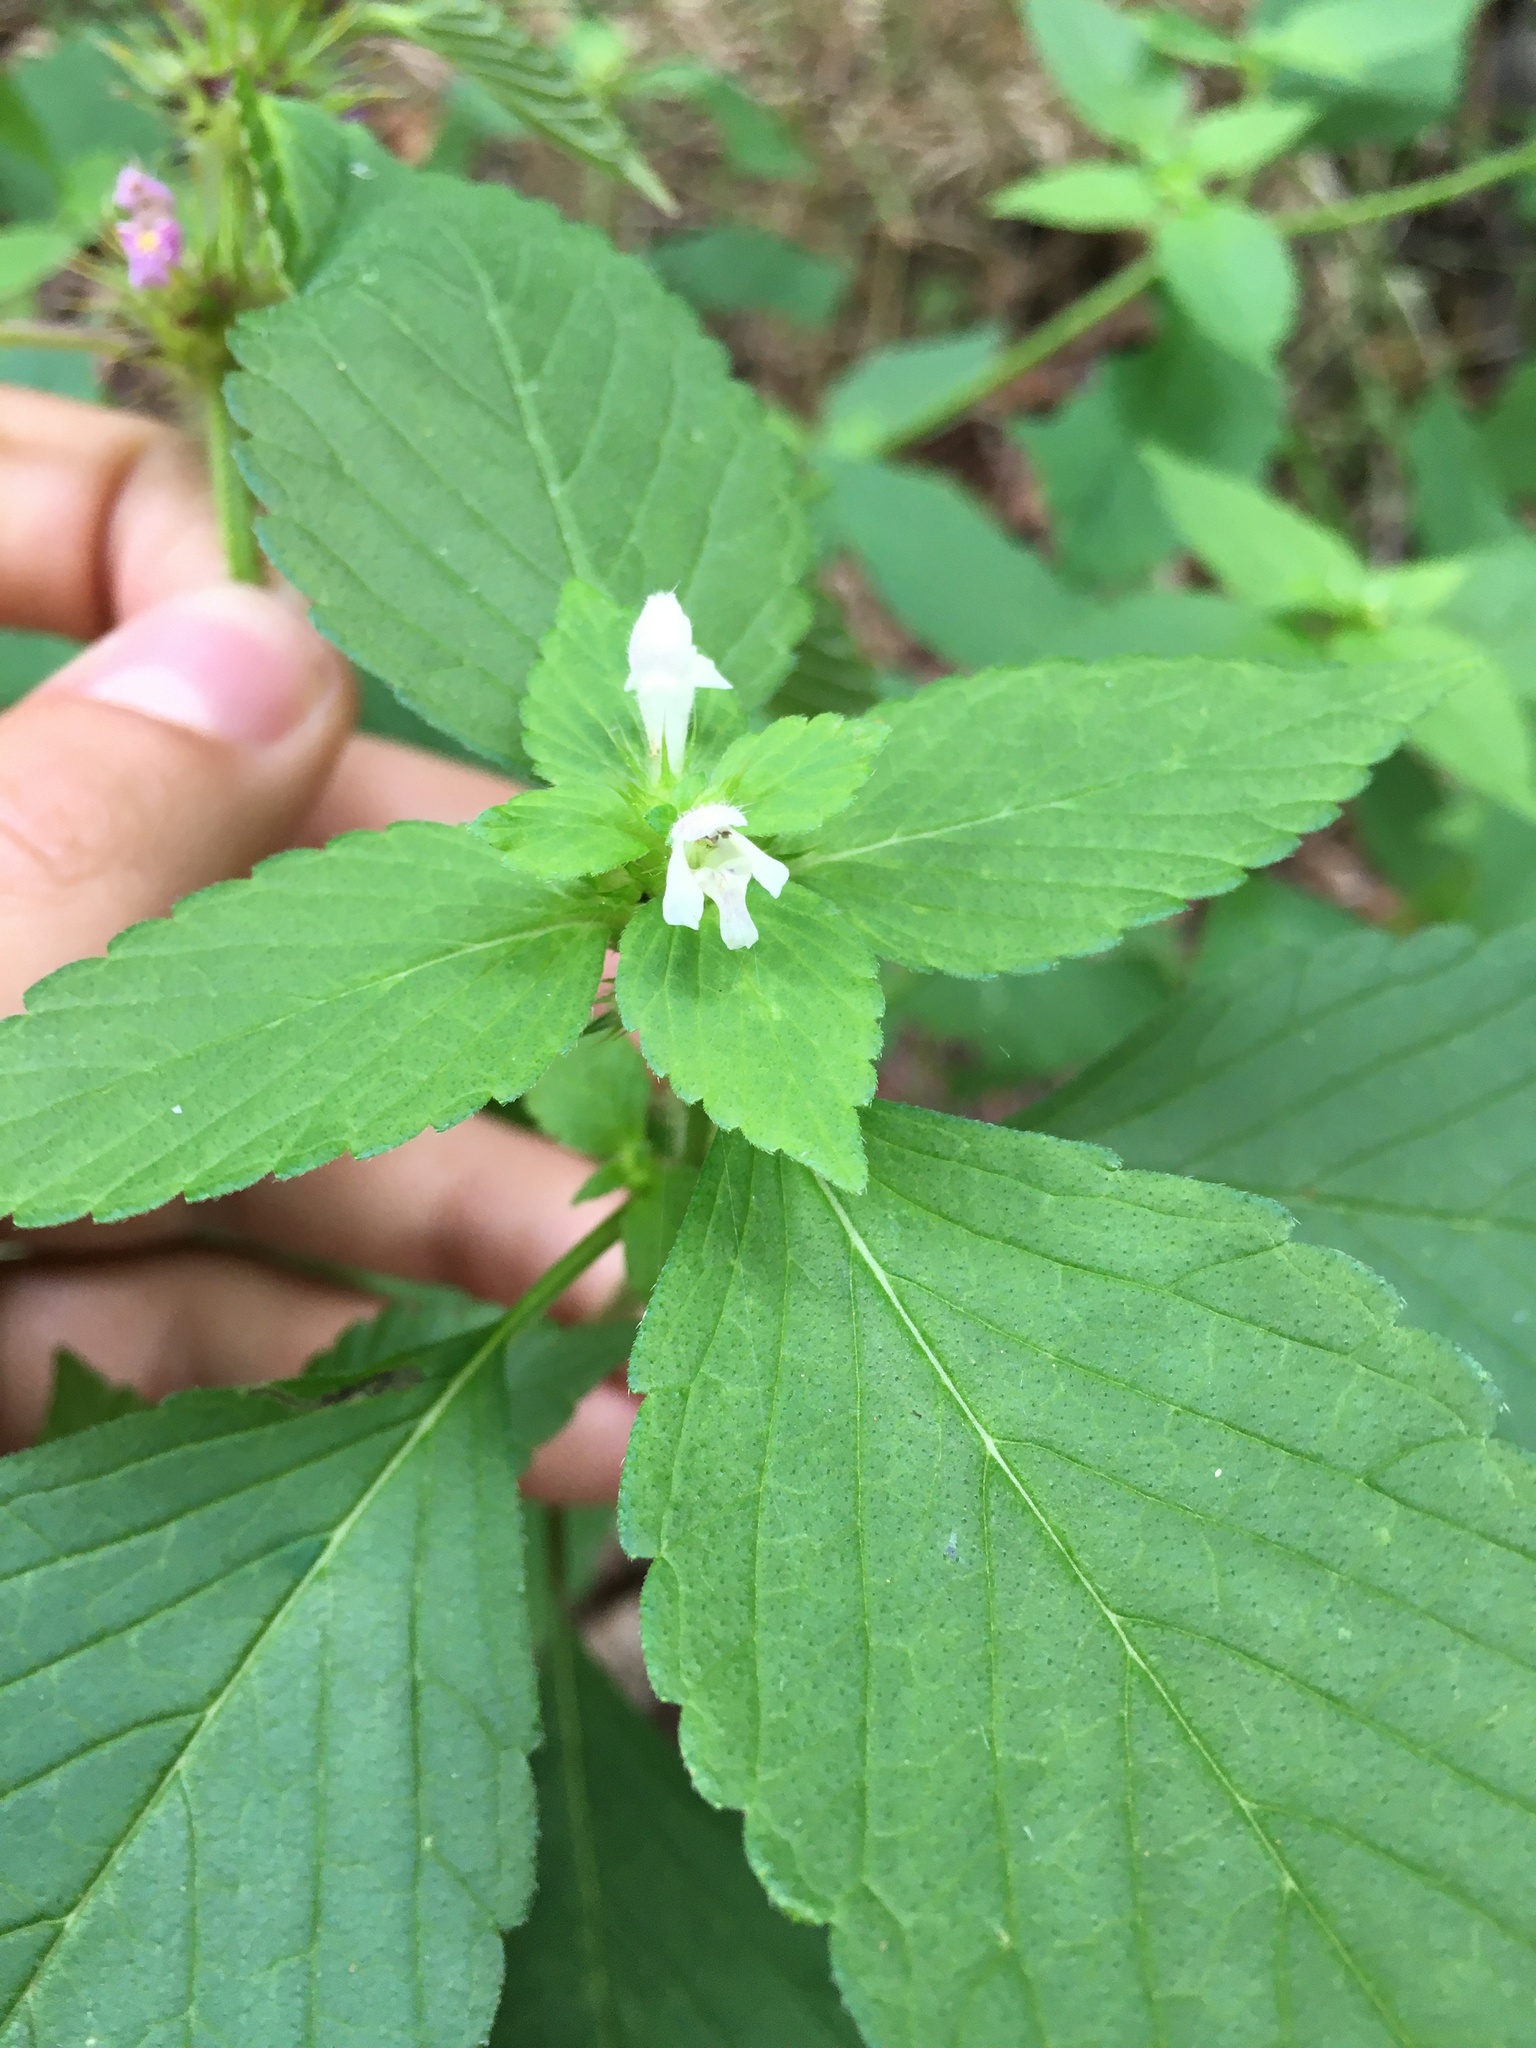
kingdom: Plantae
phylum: Tracheophyta
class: Magnoliopsida
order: Lamiales
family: Lamiaceae
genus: Galeopsis
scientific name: Galeopsis bifida
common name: Bifid hemp-nettle
